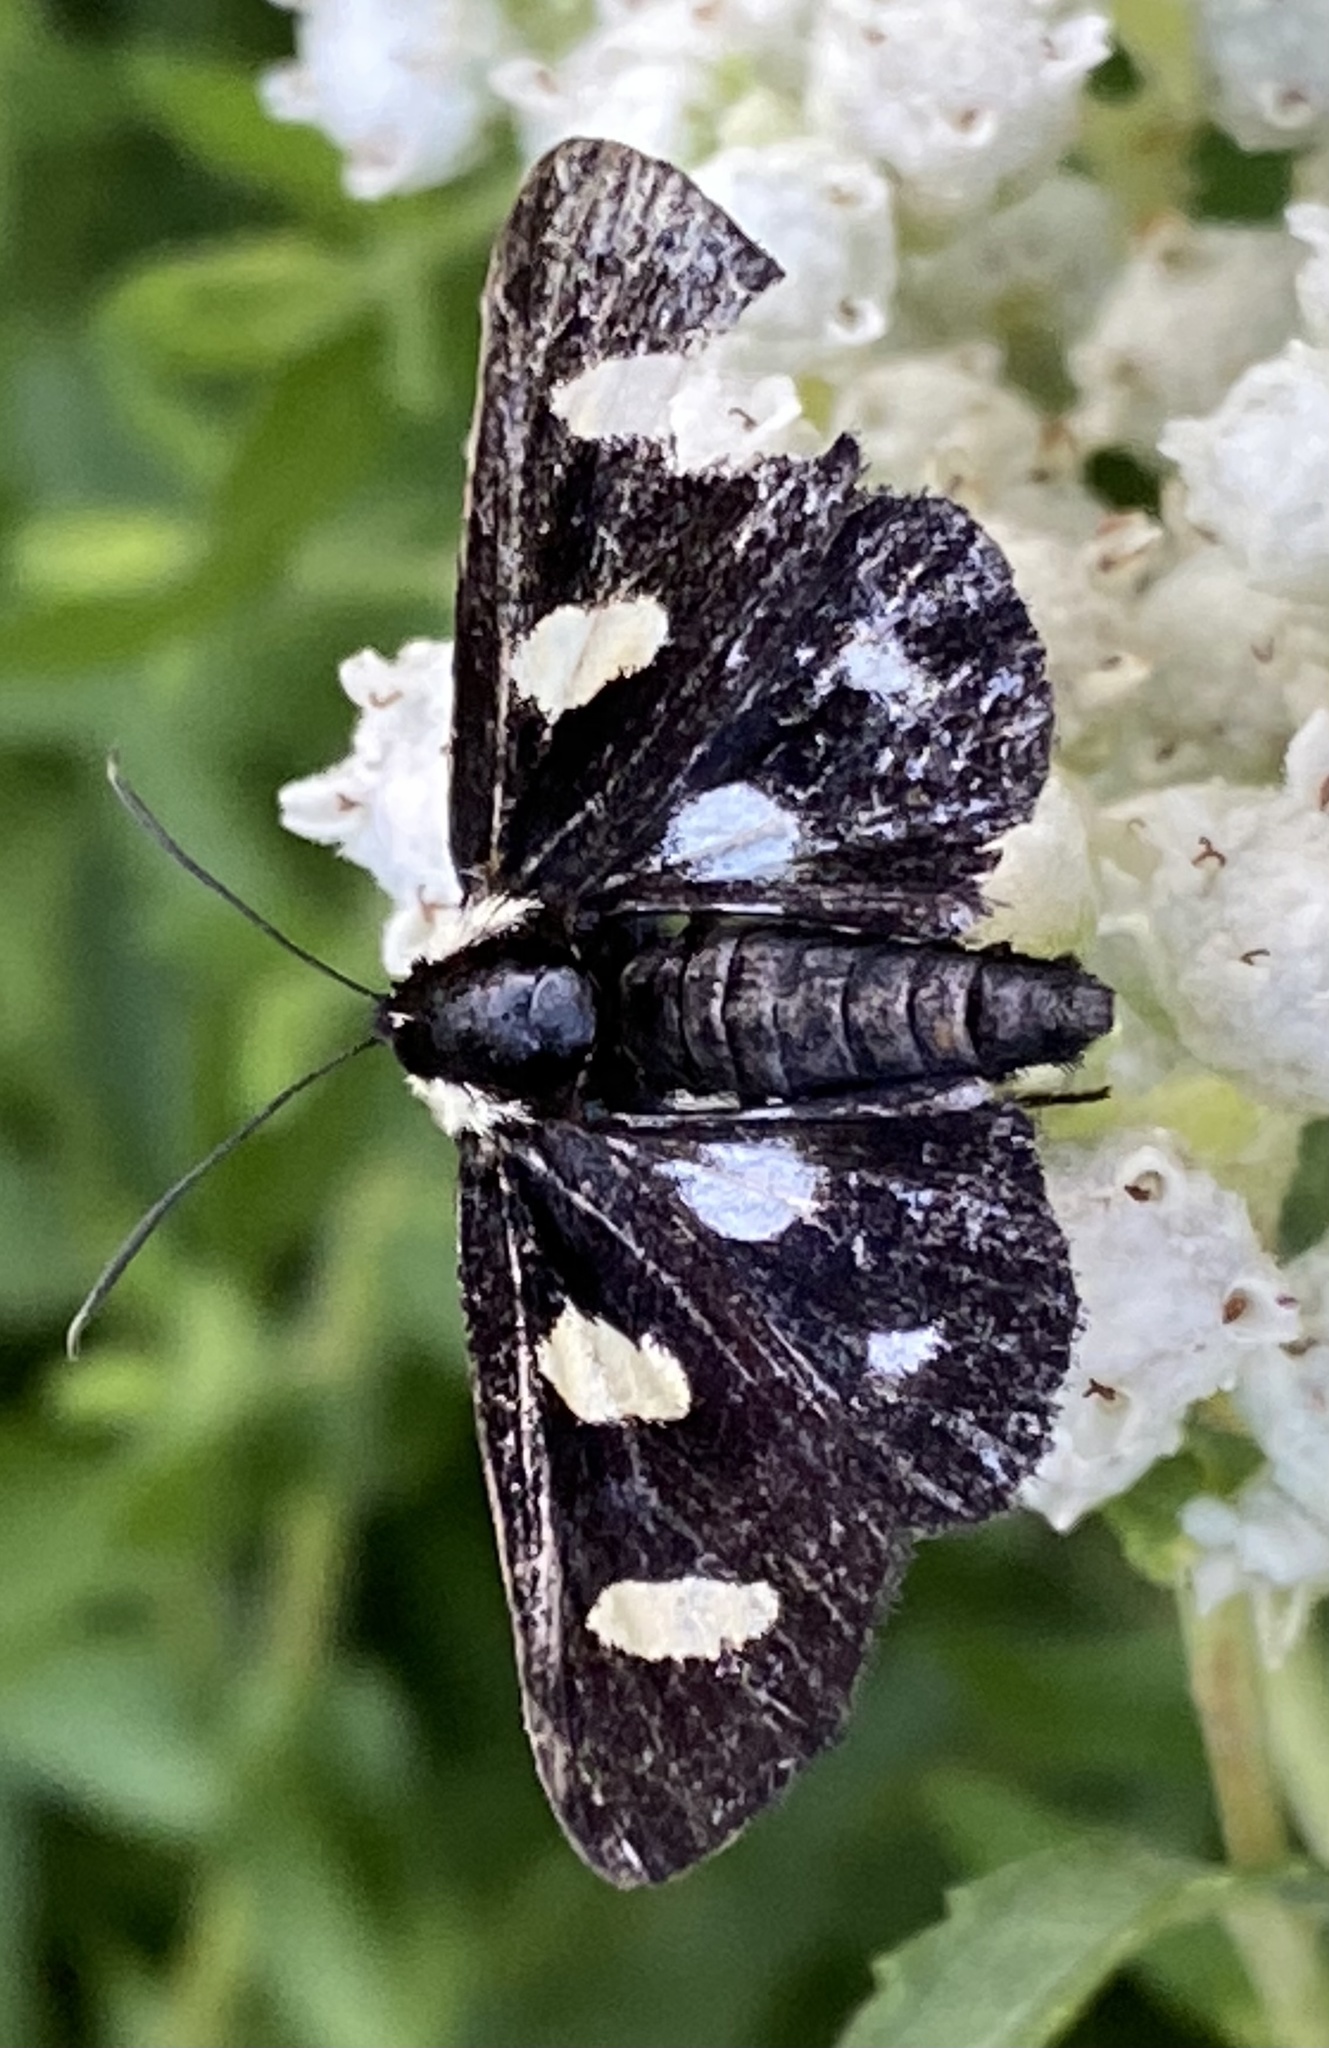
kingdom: Animalia
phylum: Arthropoda
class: Insecta
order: Lepidoptera
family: Noctuidae
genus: Alypia
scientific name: Alypia octomaculata
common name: Eight-spotted forester
